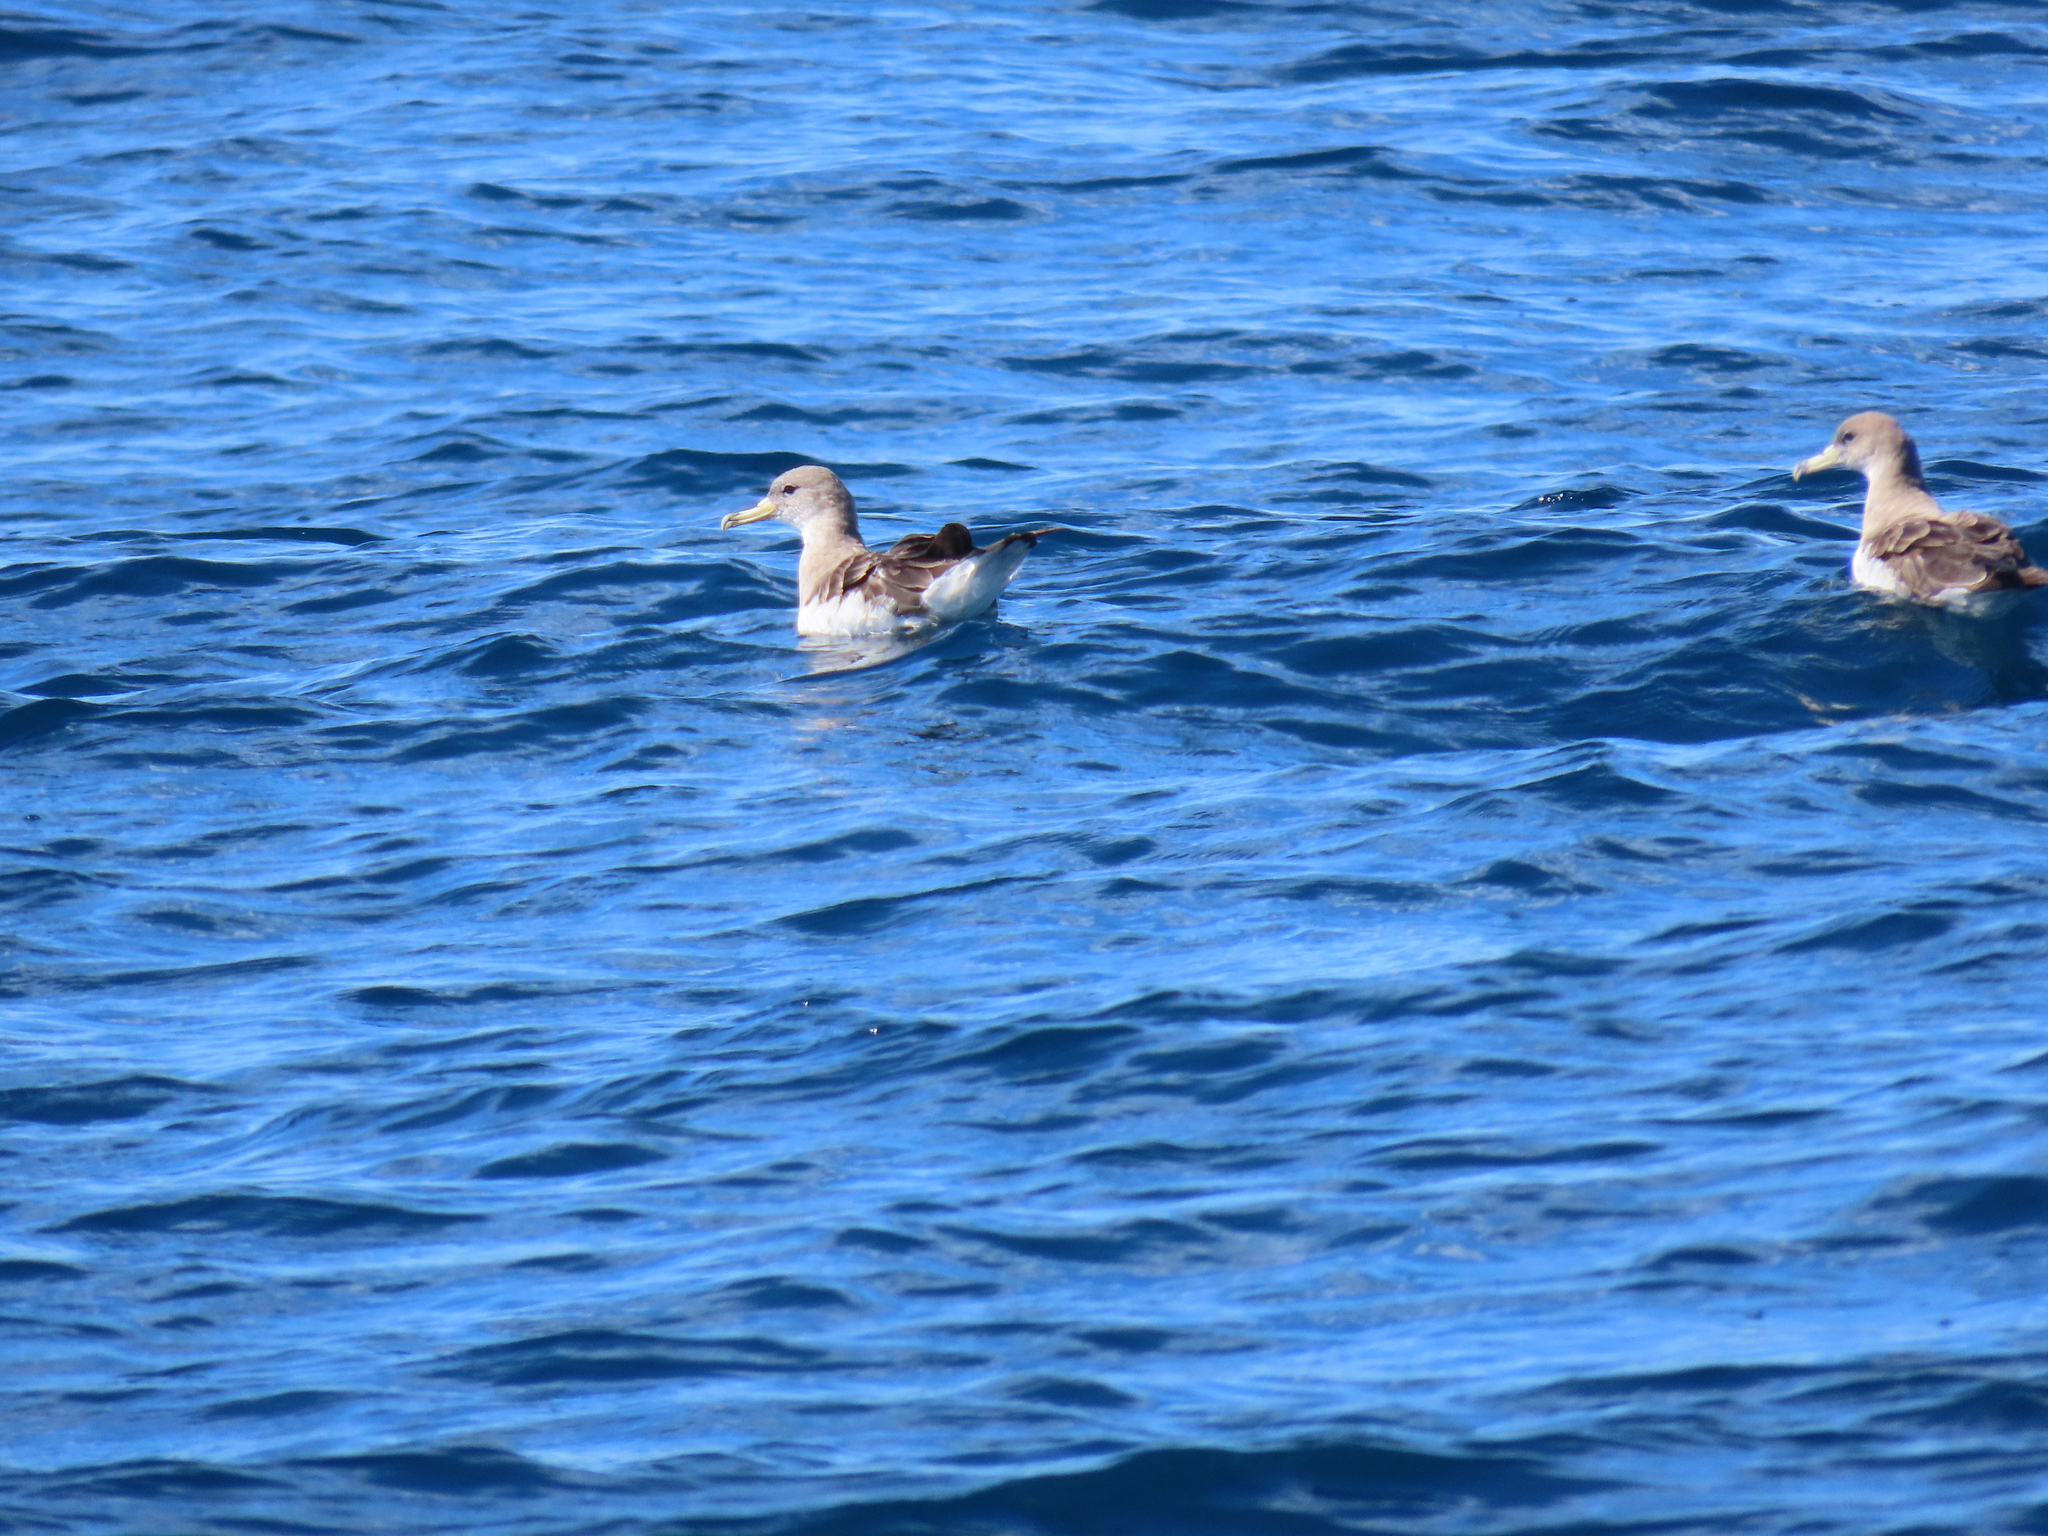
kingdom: Animalia
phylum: Chordata
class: Aves
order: Procellariiformes
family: Procellariidae
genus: Calonectris
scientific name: Calonectris diomedea
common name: Cory's shearwater
